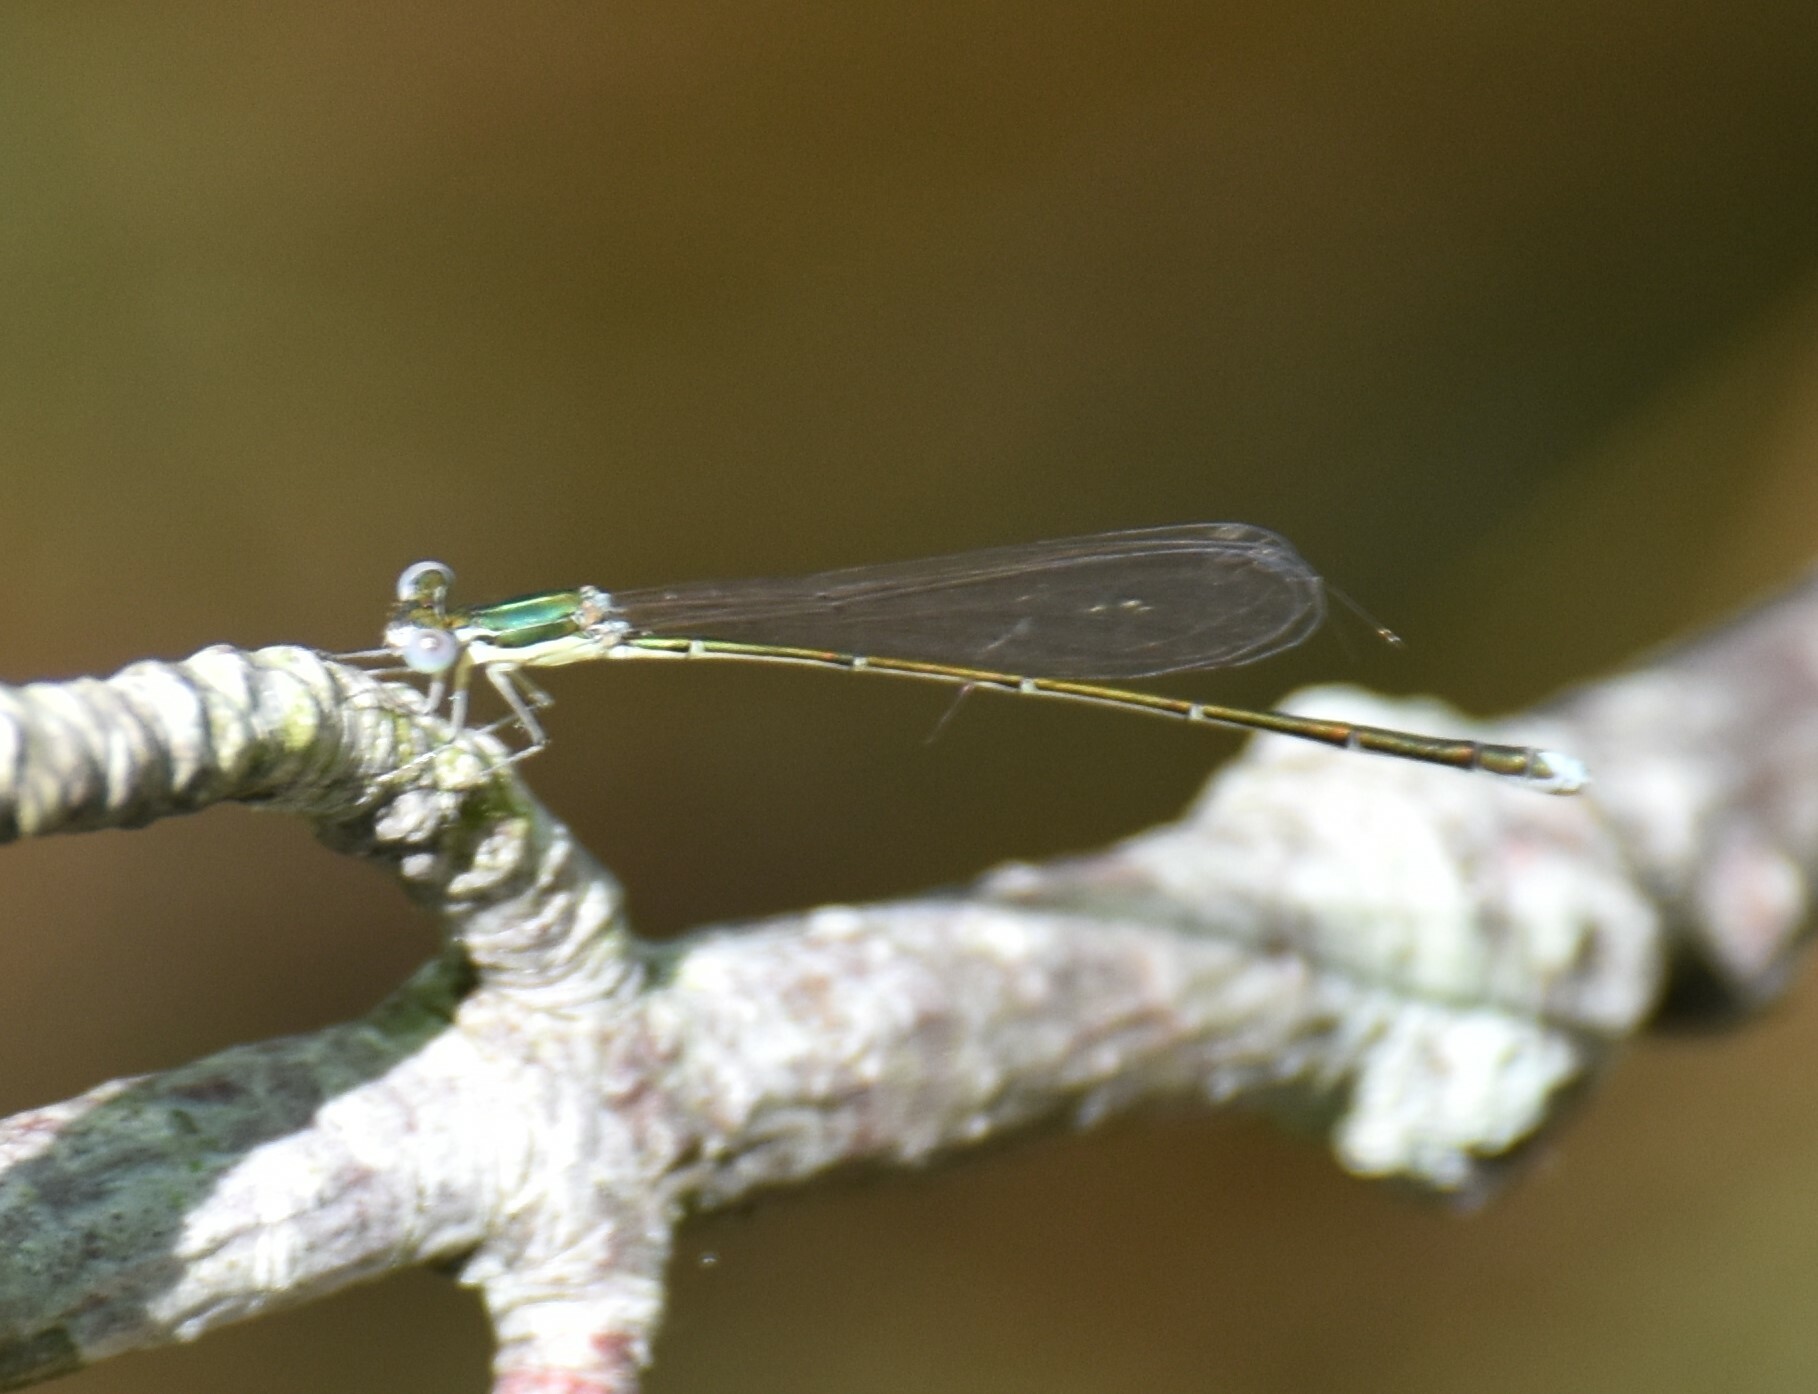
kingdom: Animalia
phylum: Arthropoda
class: Insecta
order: Odonata
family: Coenagrionidae
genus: Nehalennia
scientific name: Nehalennia gracilis
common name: Sphagnum sprite
